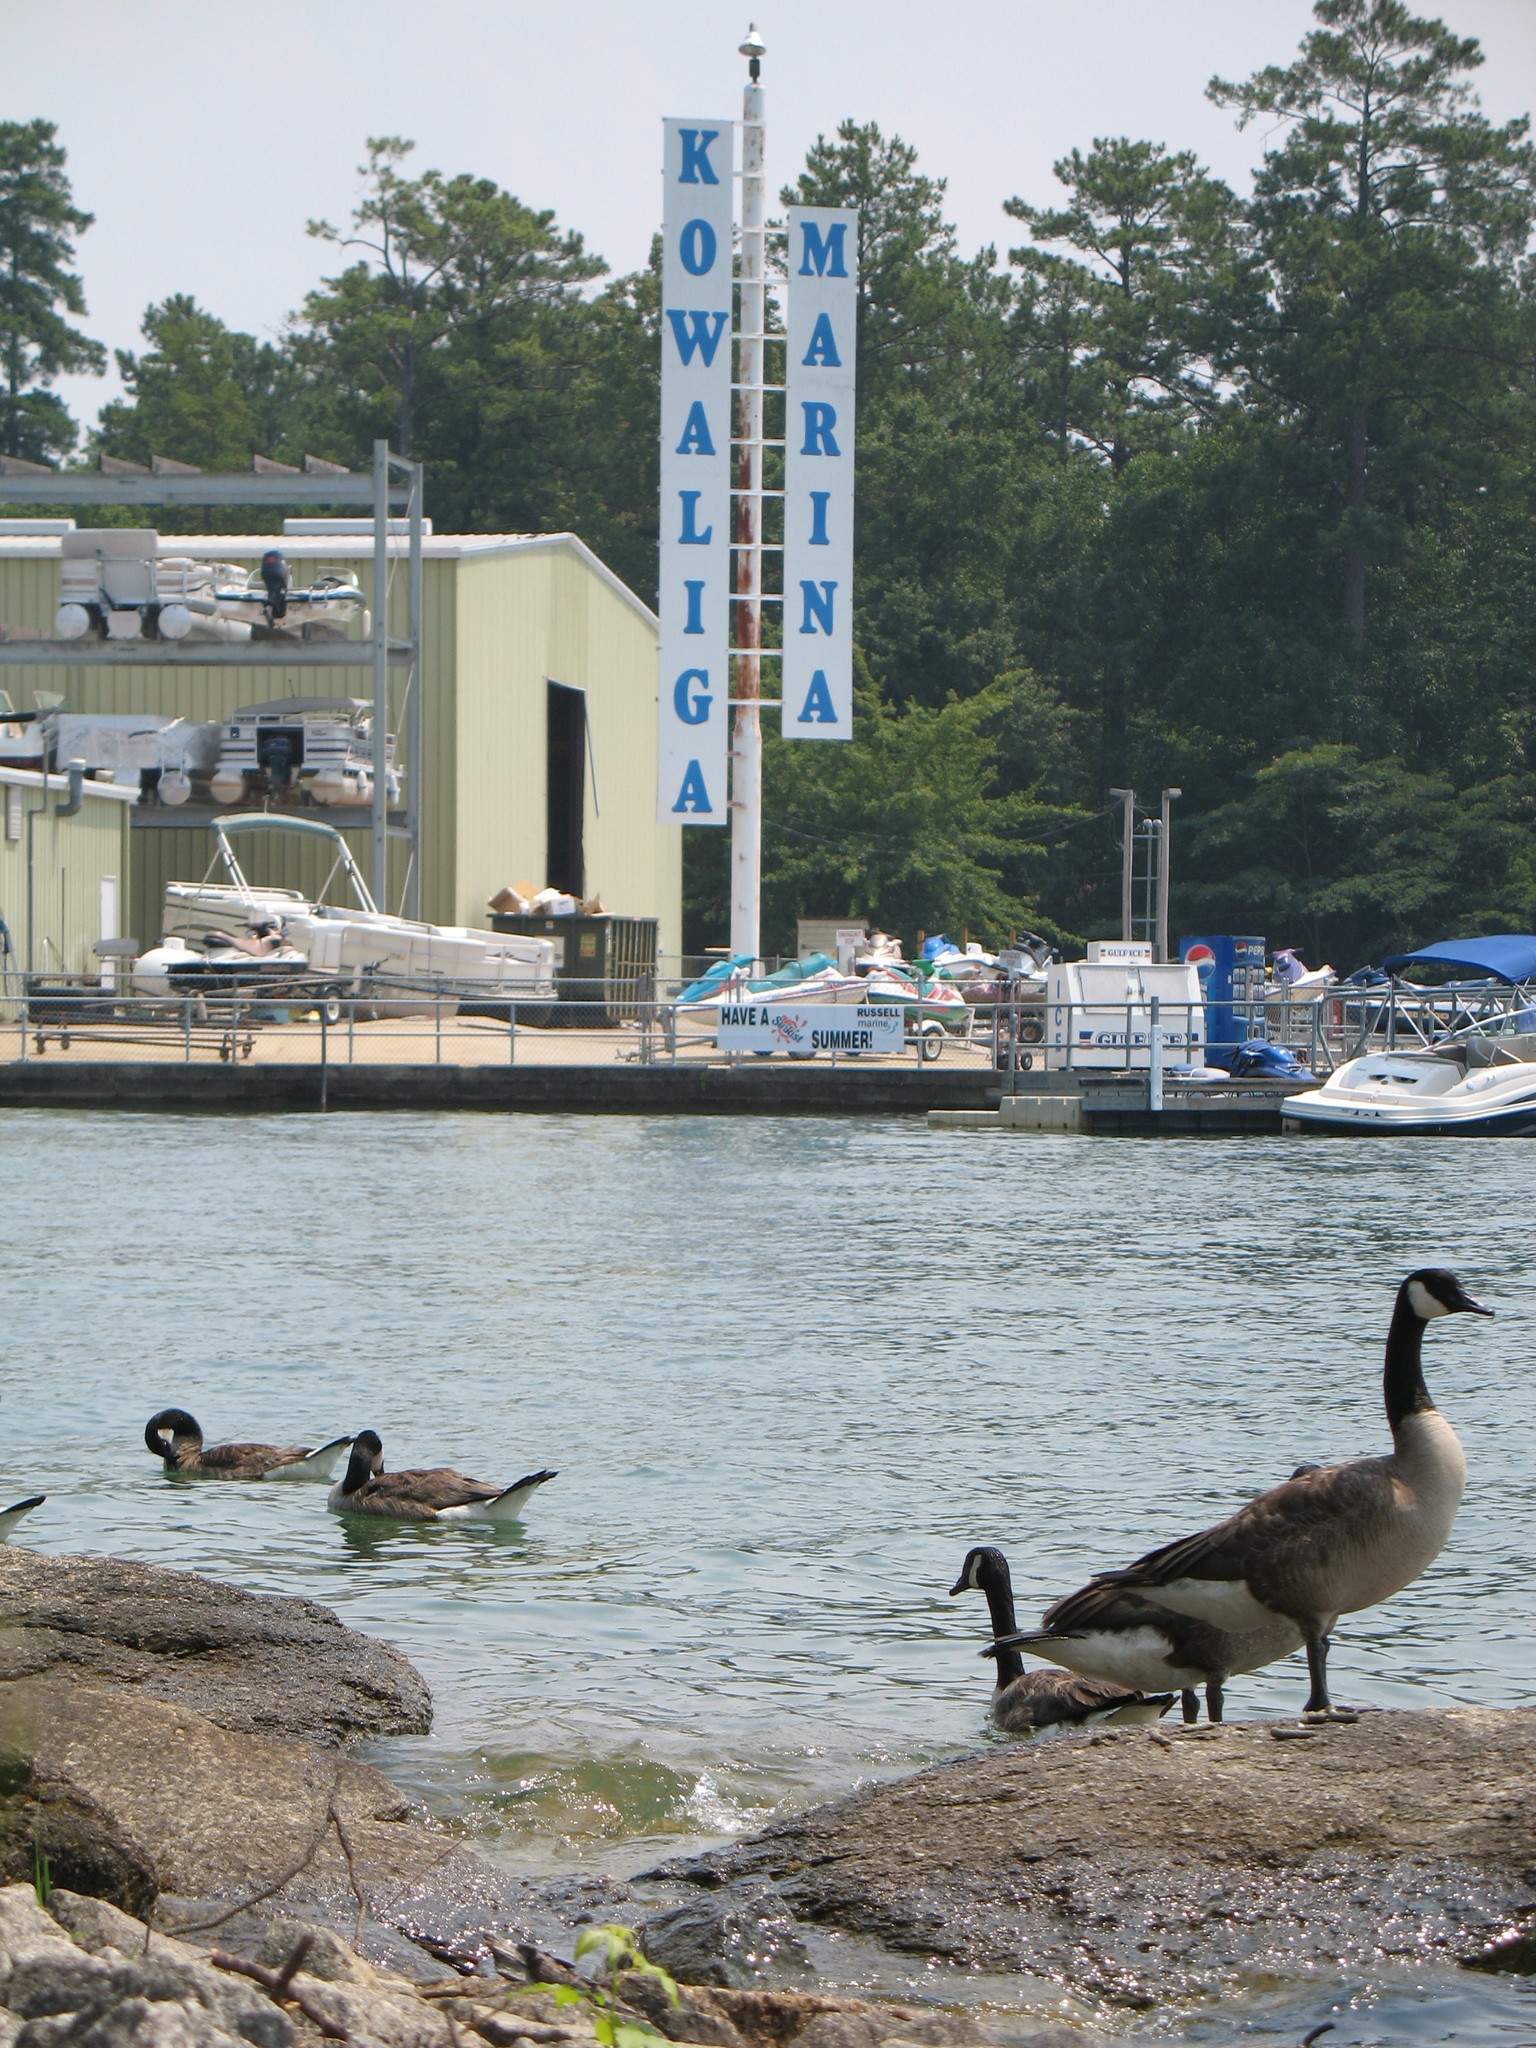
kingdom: Animalia
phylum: Chordata
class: Aves
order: Anseriformes
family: Anatidae
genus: Branta
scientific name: Branta canadensis
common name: Canada goose
